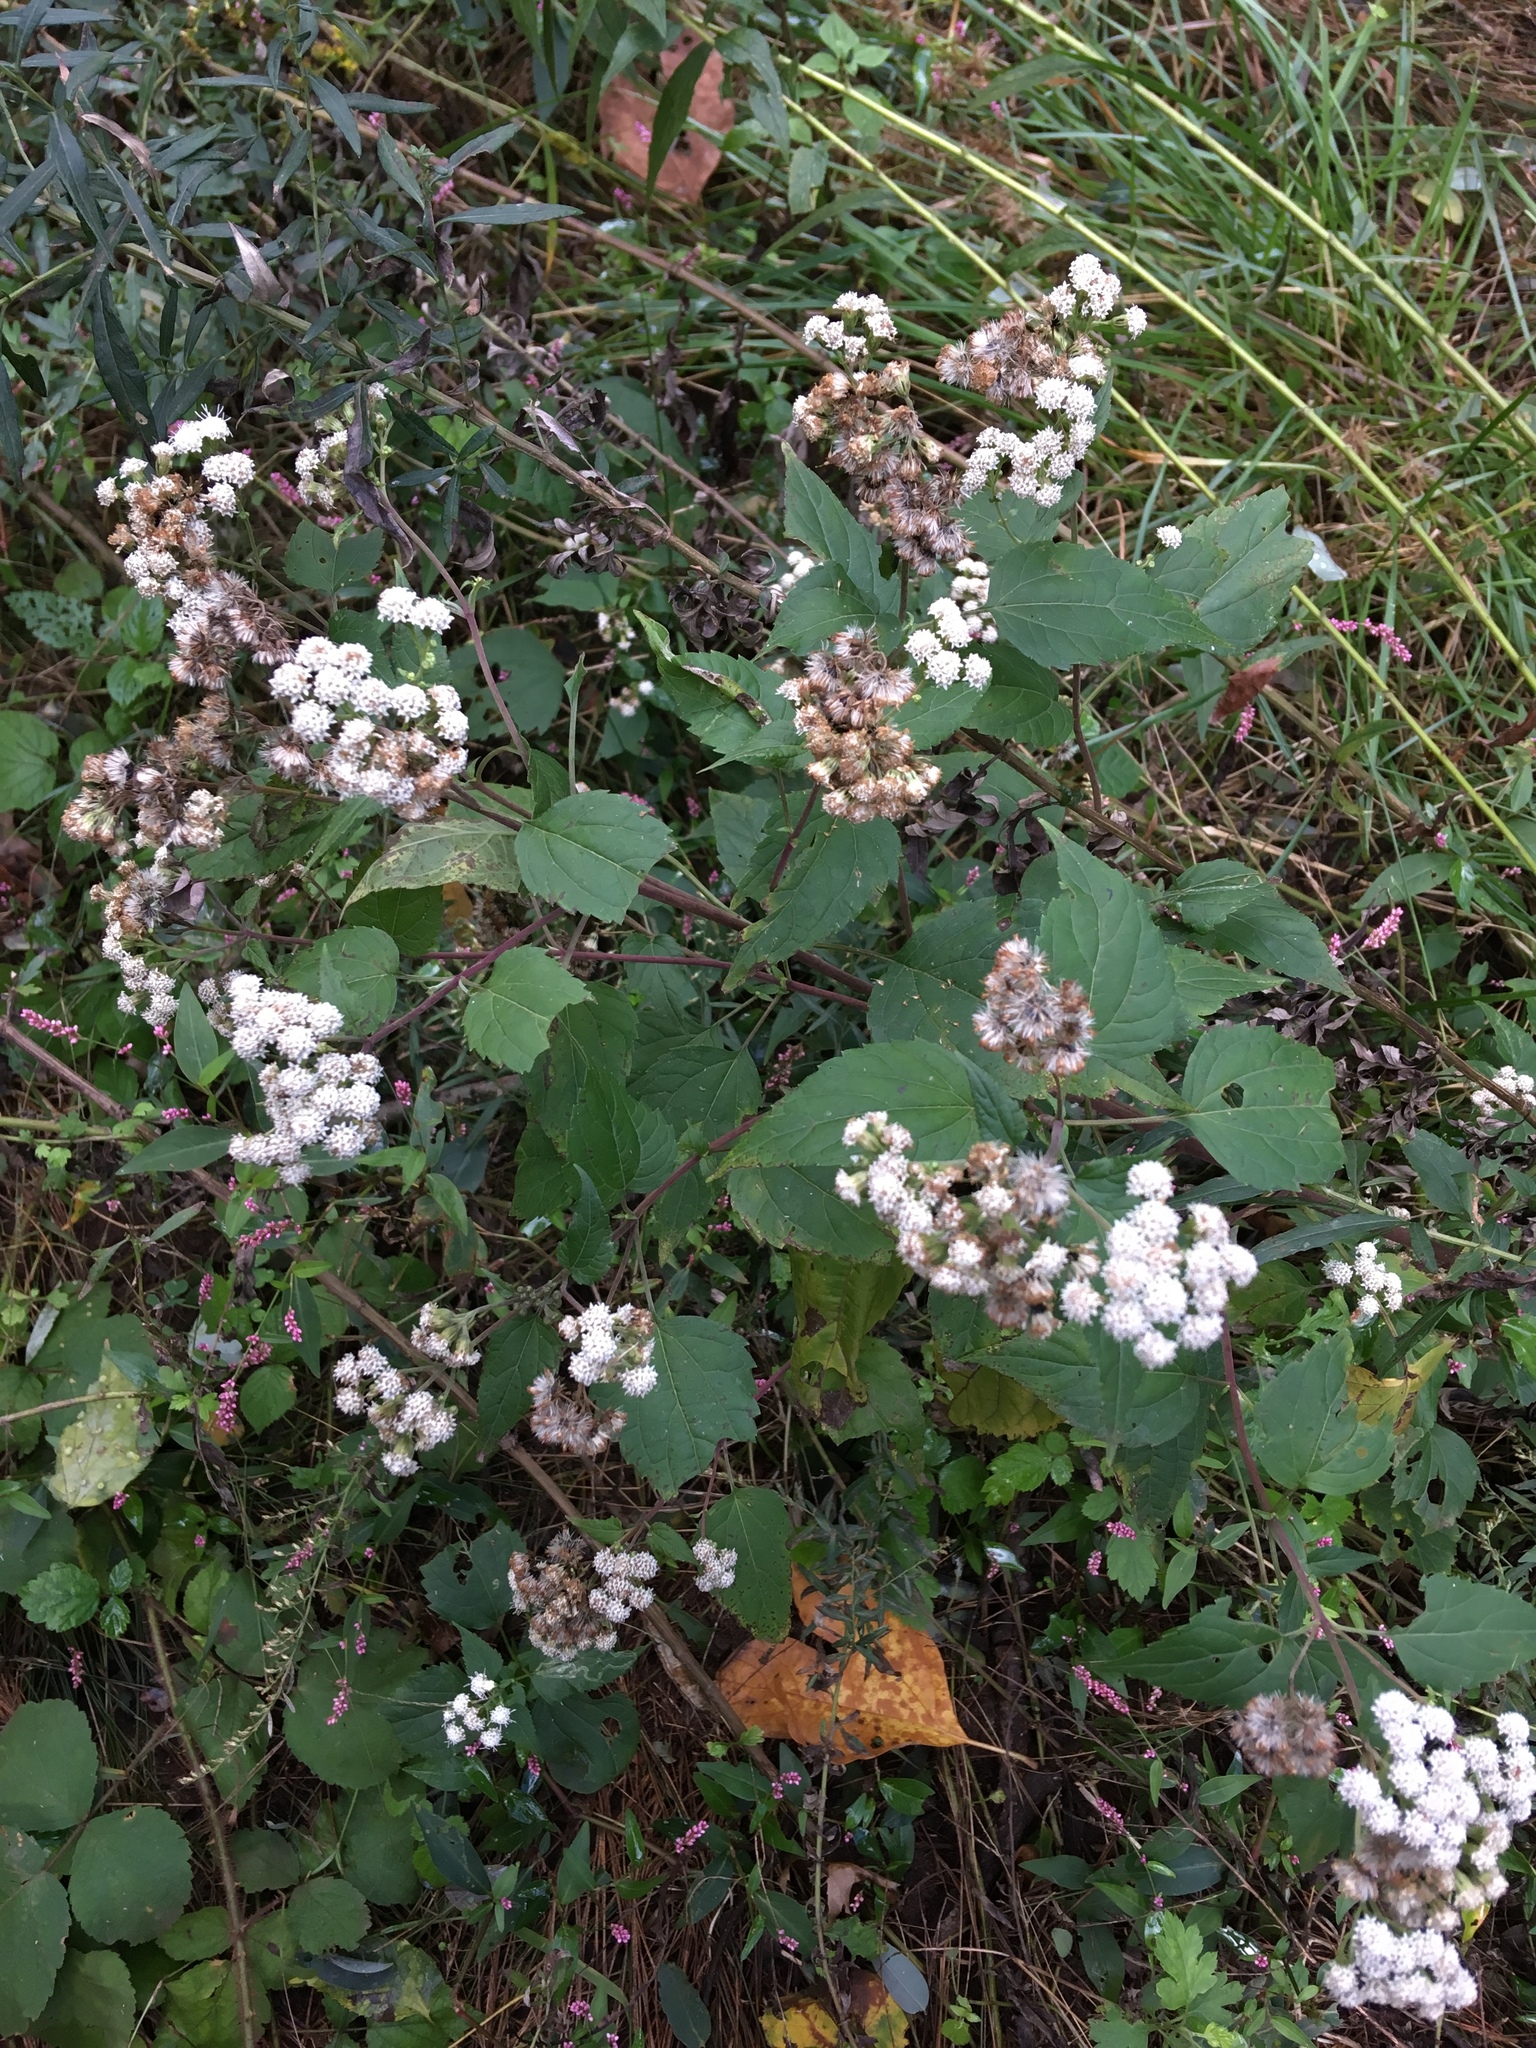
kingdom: Plantae
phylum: Tracheophyta
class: Magnoliopsida
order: Asterales
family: Asteraceae
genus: Ageratina
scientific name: Ageratina altissima
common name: White snakeroot
